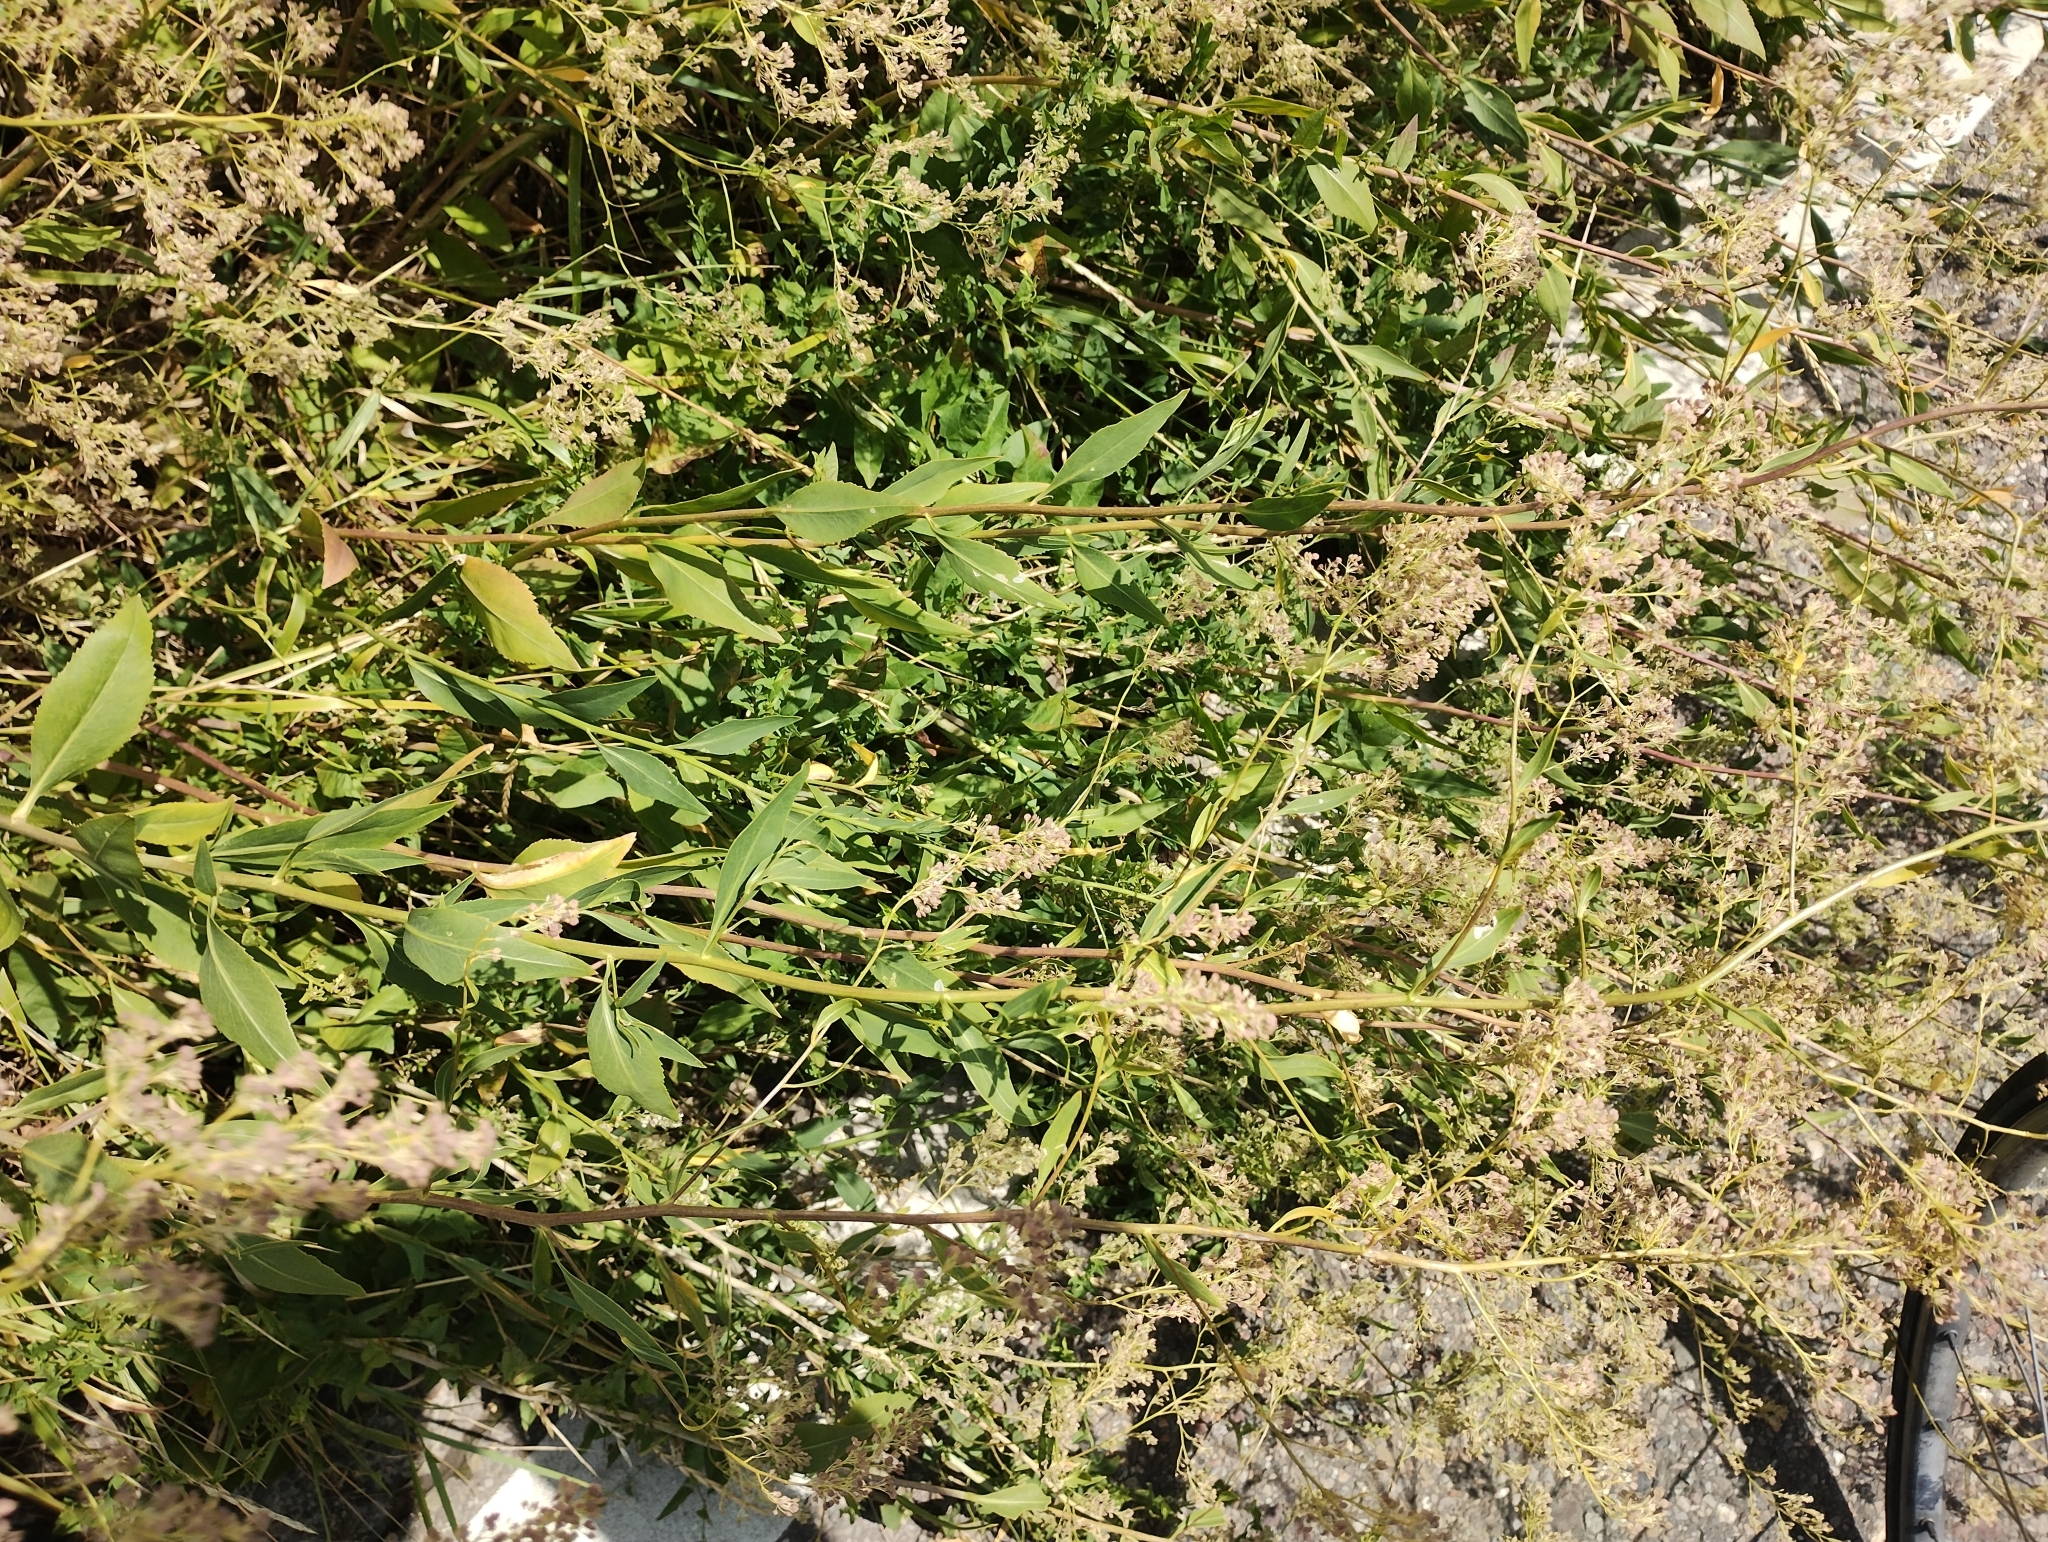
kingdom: Plantae
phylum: Tracheophyta
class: Magnoliopsida
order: Brassicales
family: Brassicaceae
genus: Lepidium
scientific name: Lepidium latifolium
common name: Dittander
